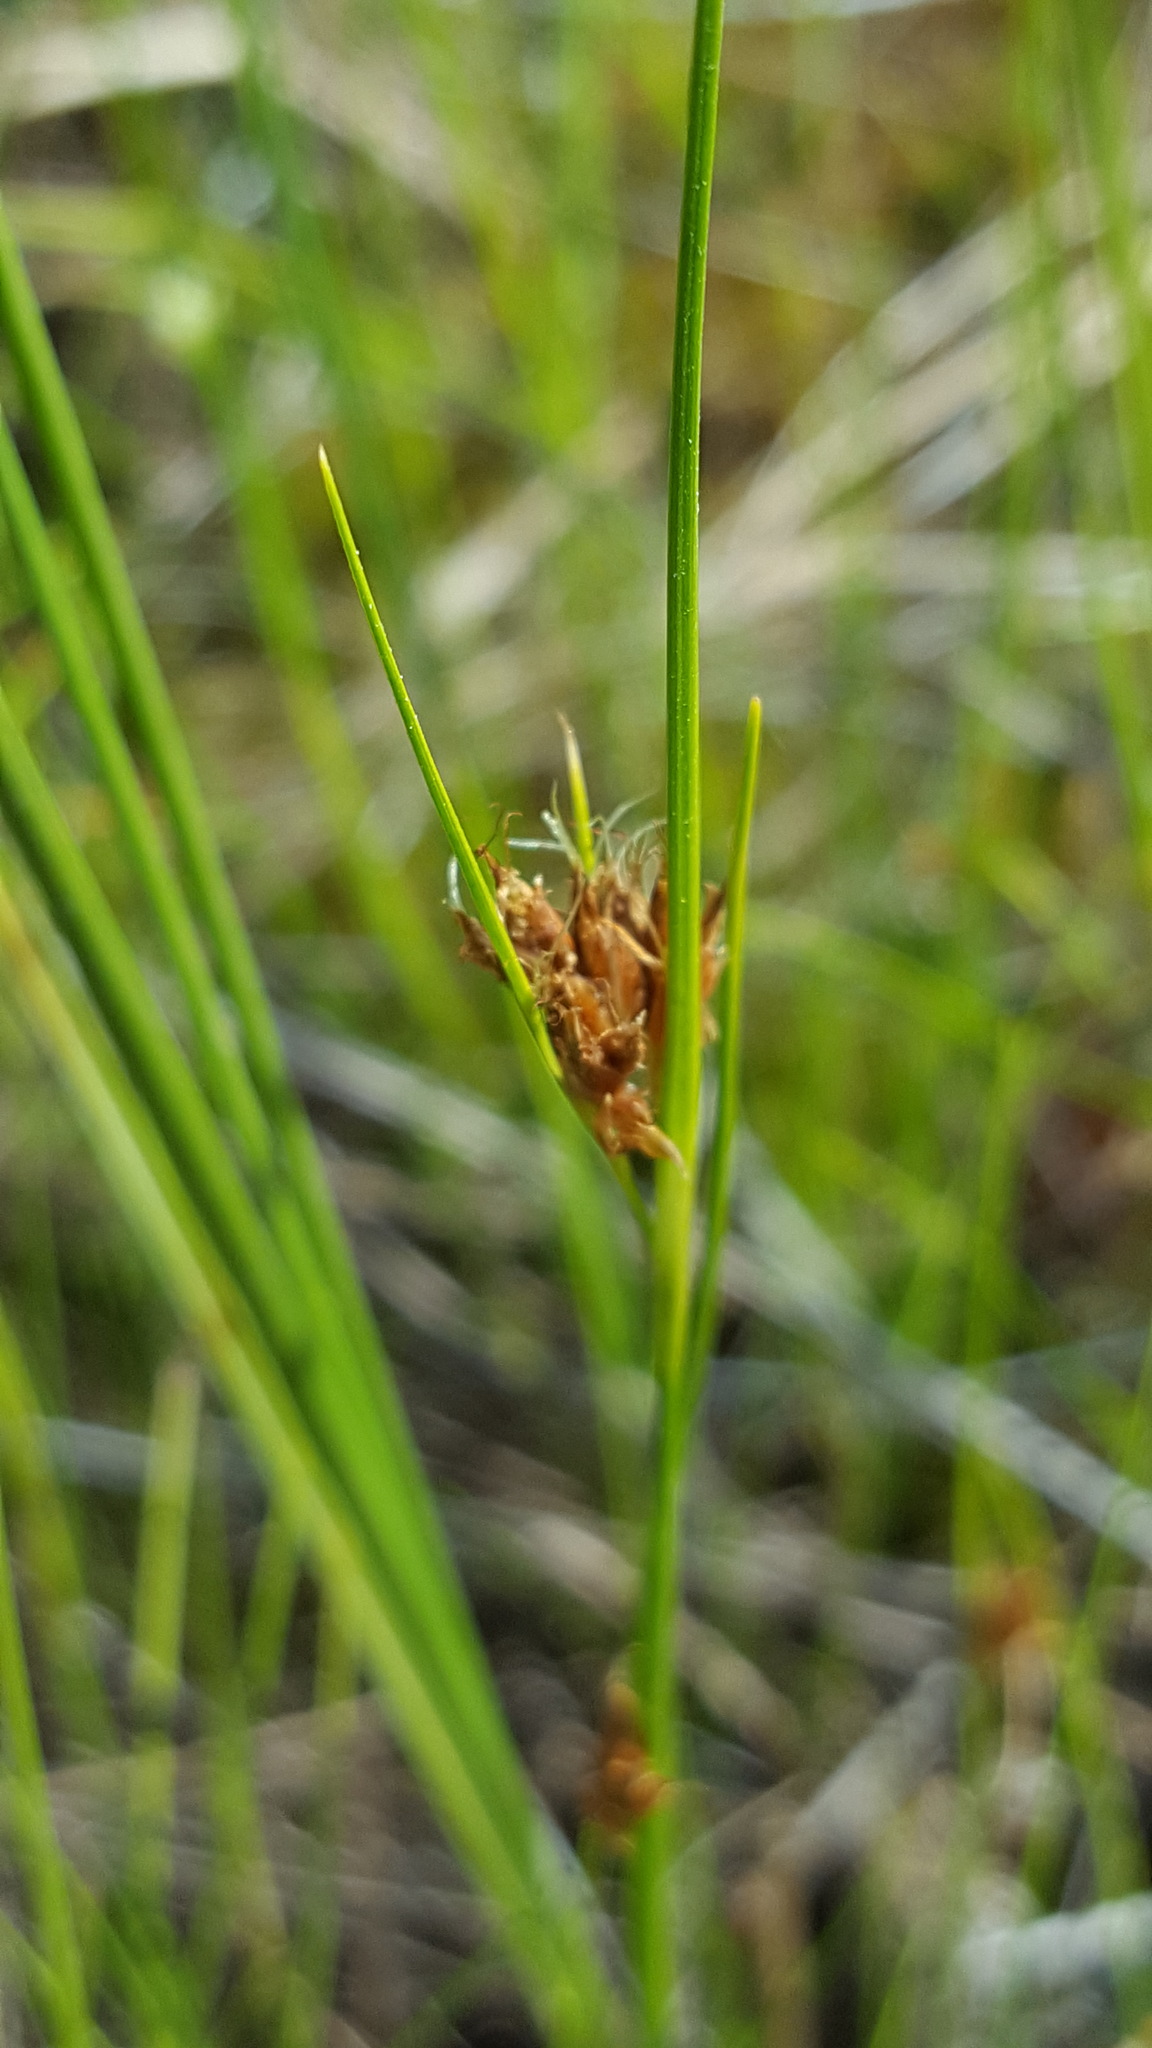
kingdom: Plantae
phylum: Tracheophyta
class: Liliopsida
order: Poales
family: Cyperaceae
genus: Rhynchospora
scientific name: Rhynchospora fusca
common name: Brown beak-sedge
